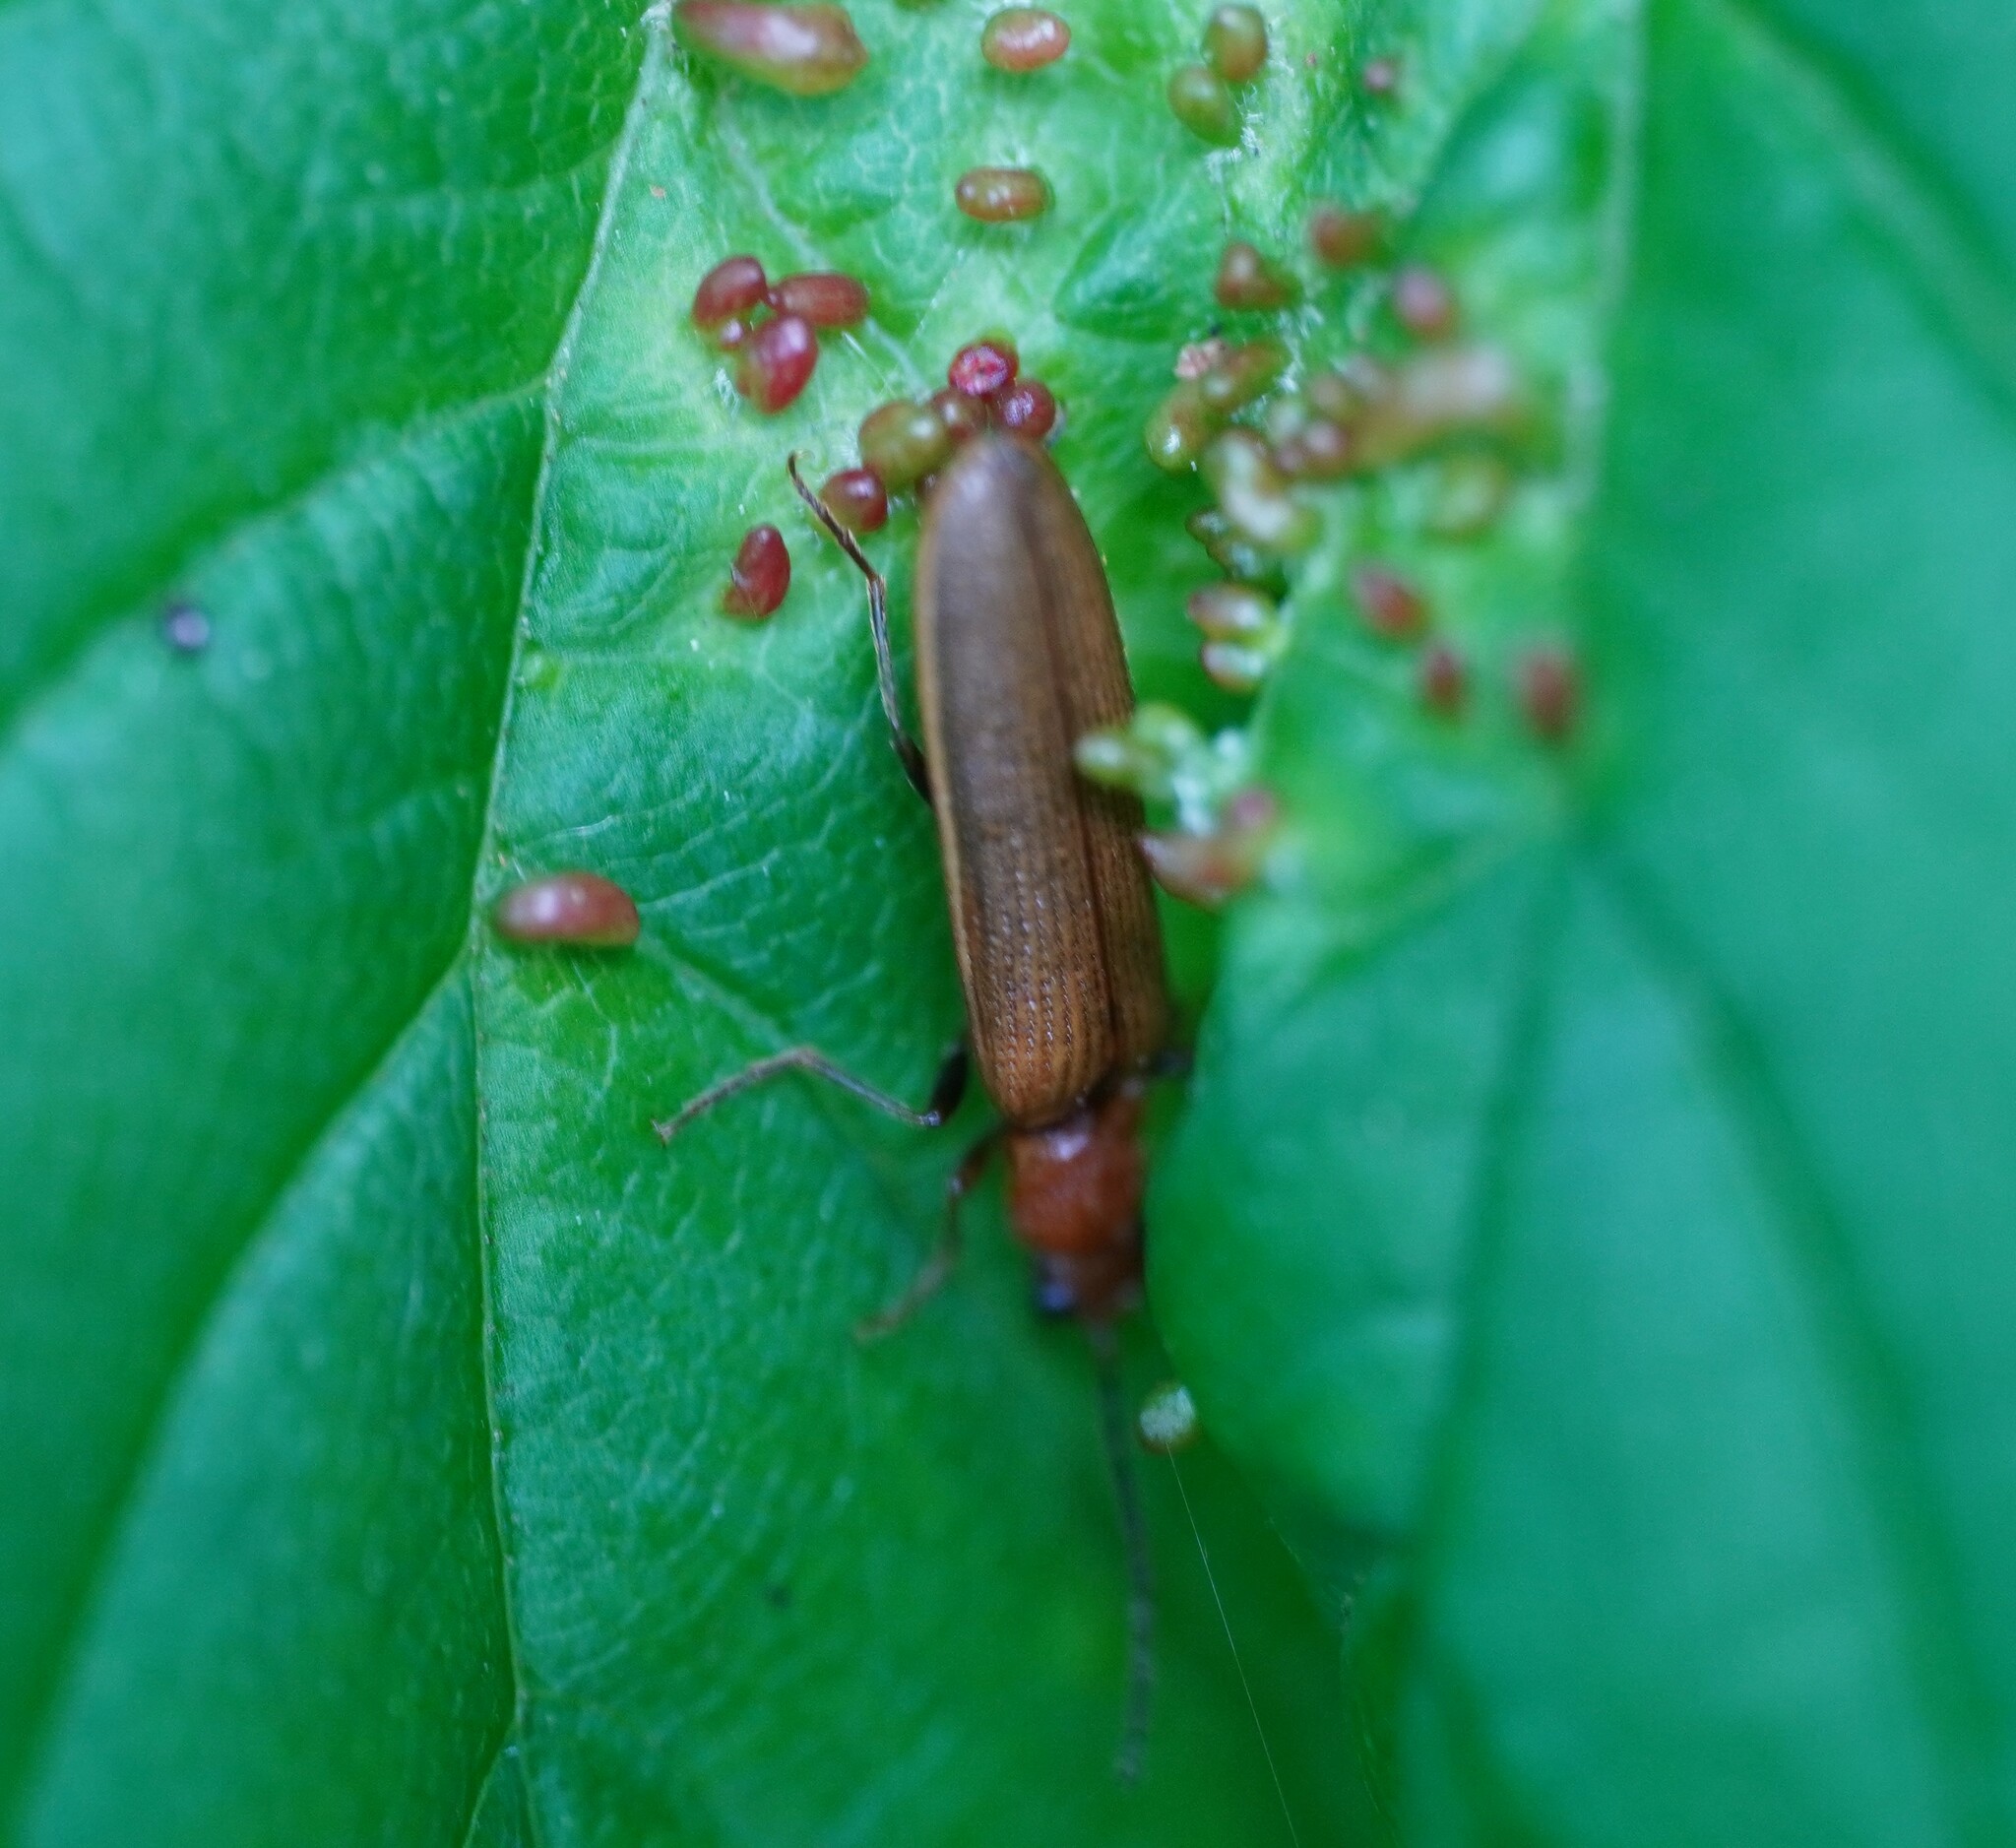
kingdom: Animalia
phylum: Arthropoda
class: Insecta
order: Coleoptera
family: Elateridae
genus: Denticollis
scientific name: Denticollis linearis
